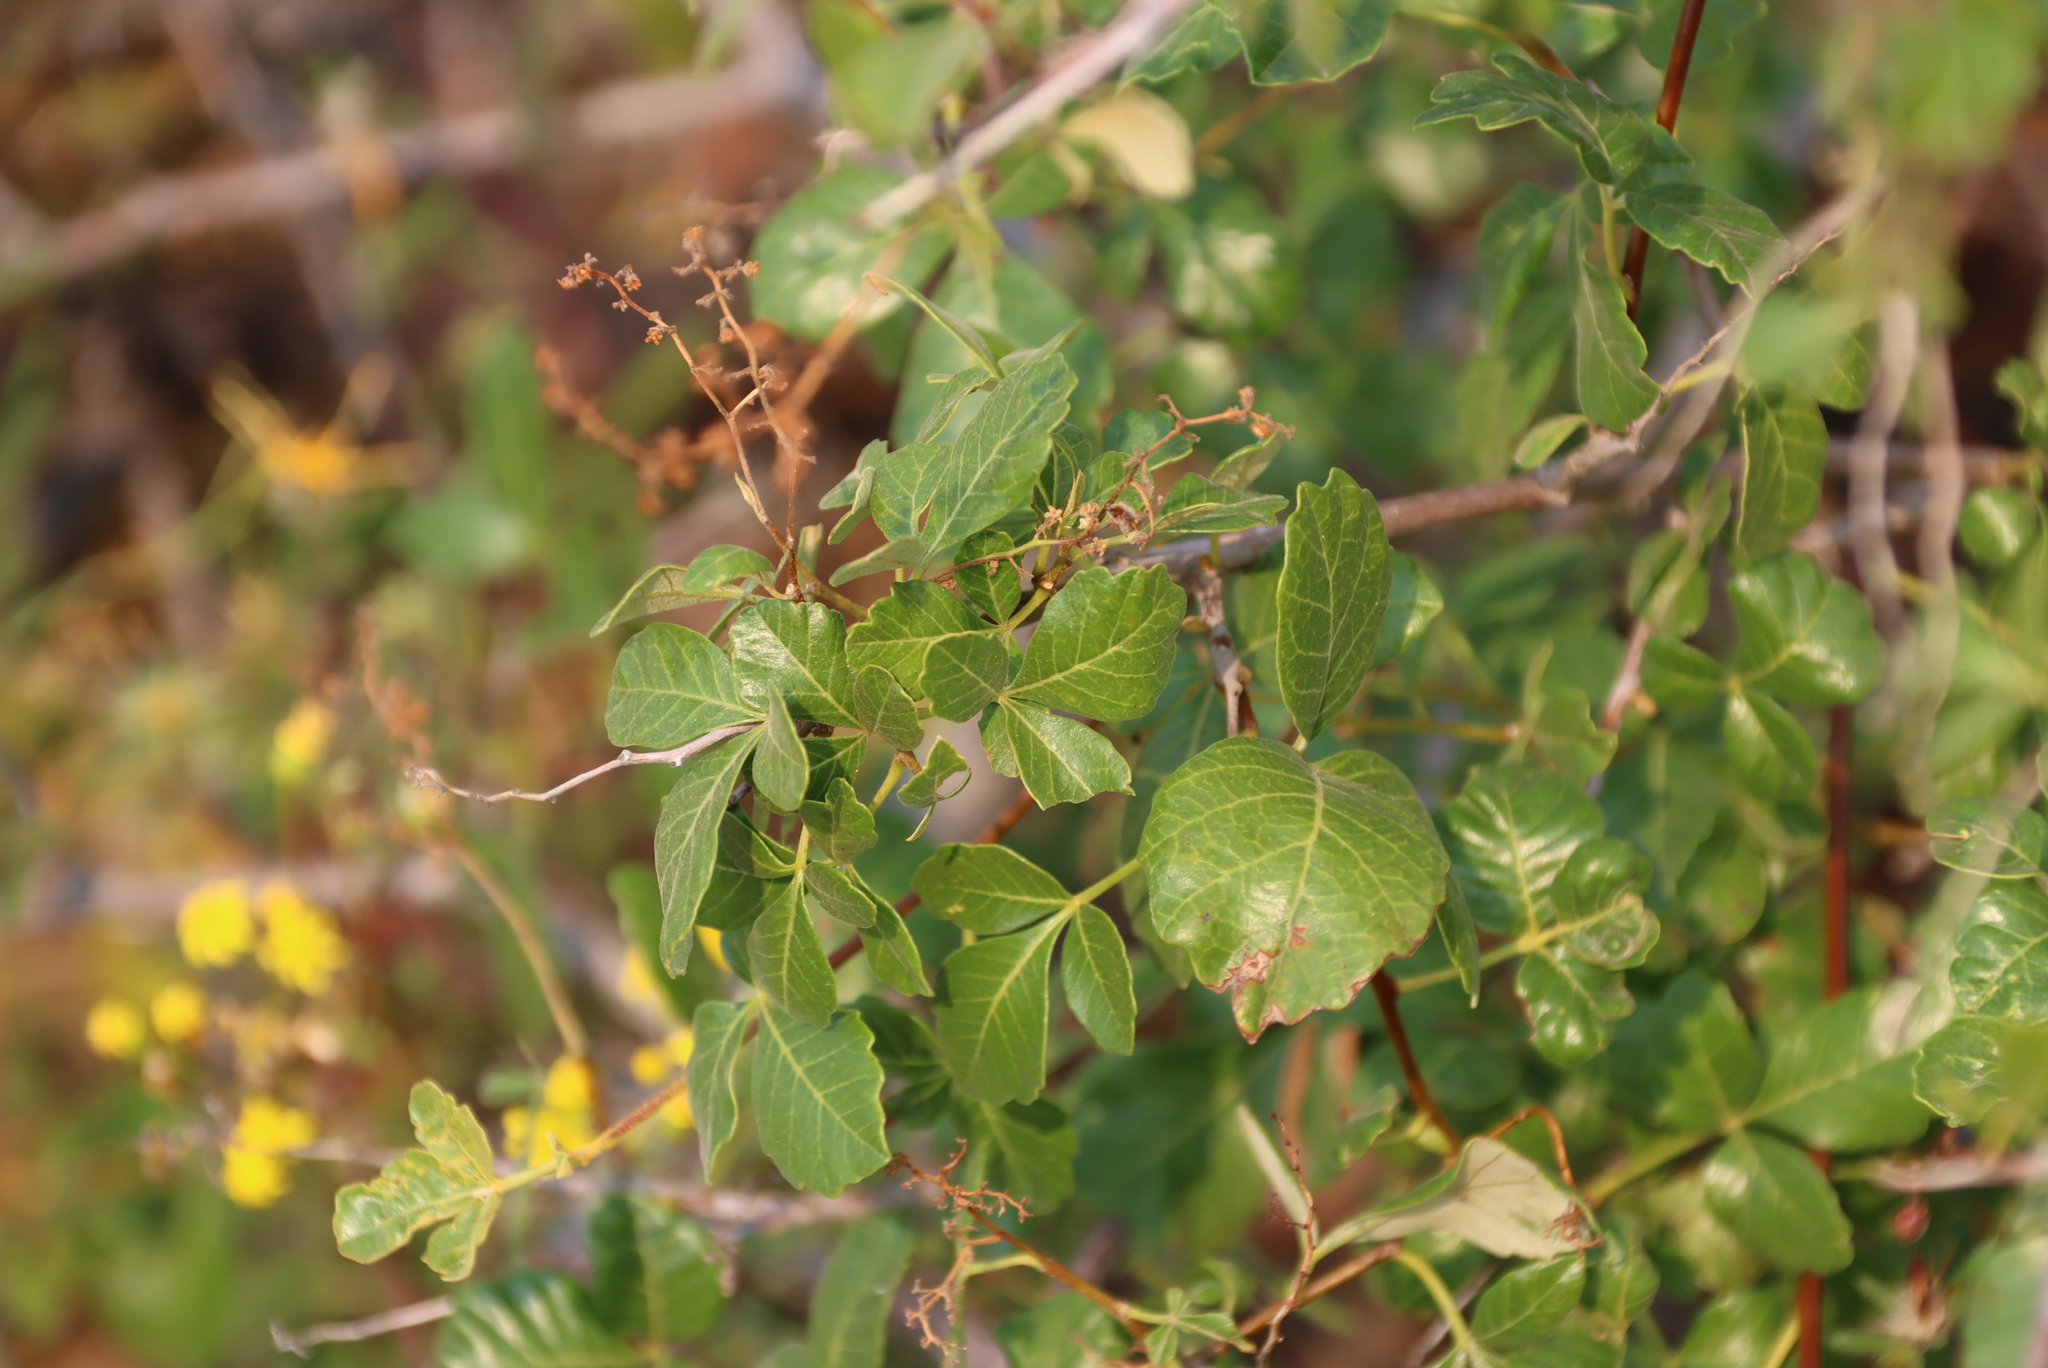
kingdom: Plantae
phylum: Tracheophyta
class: Magnoliopsida
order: Sapindales
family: Anacardiaceae
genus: Searsia
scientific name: Searsia populifolia
